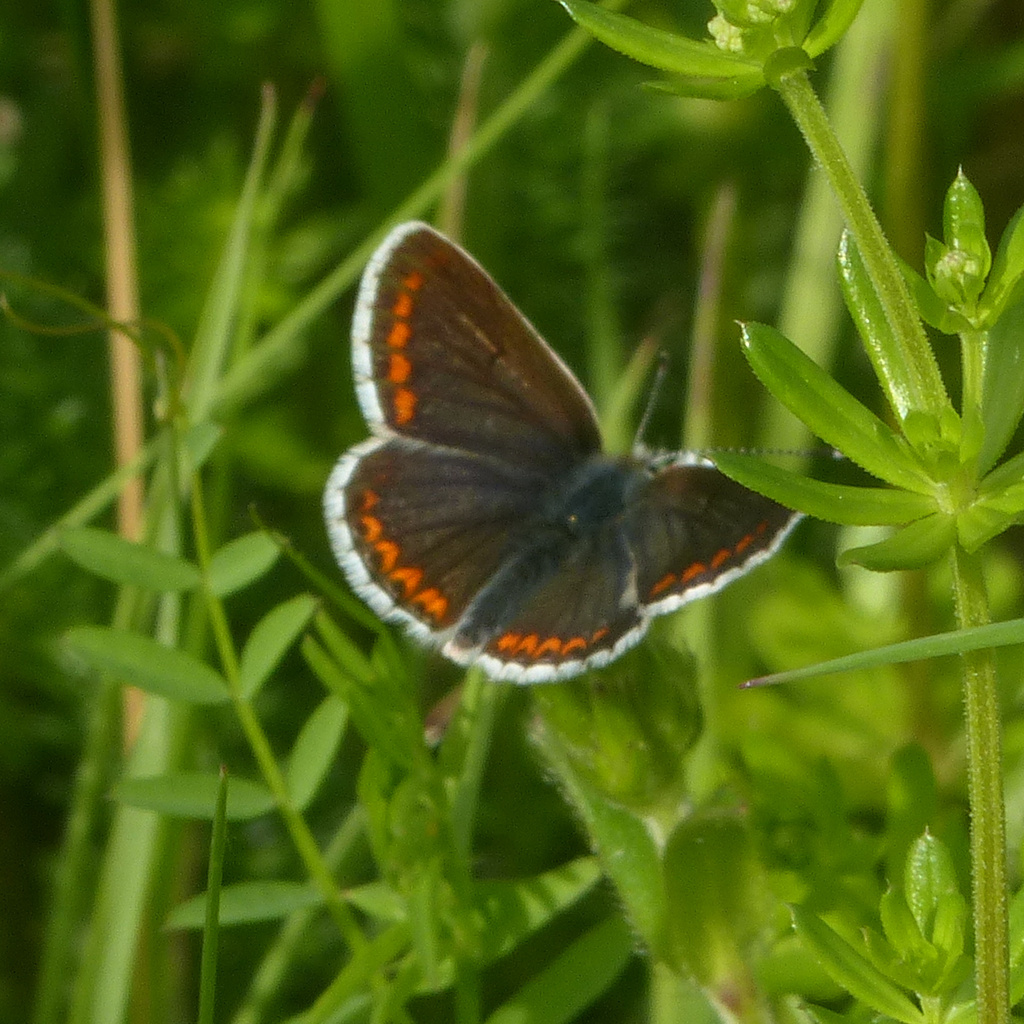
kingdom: Animalia
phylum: Arthropoda
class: Insecta
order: Lepidoptera
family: Lycaenidae
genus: Aricia
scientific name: Aricia agestis
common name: Brown argus
